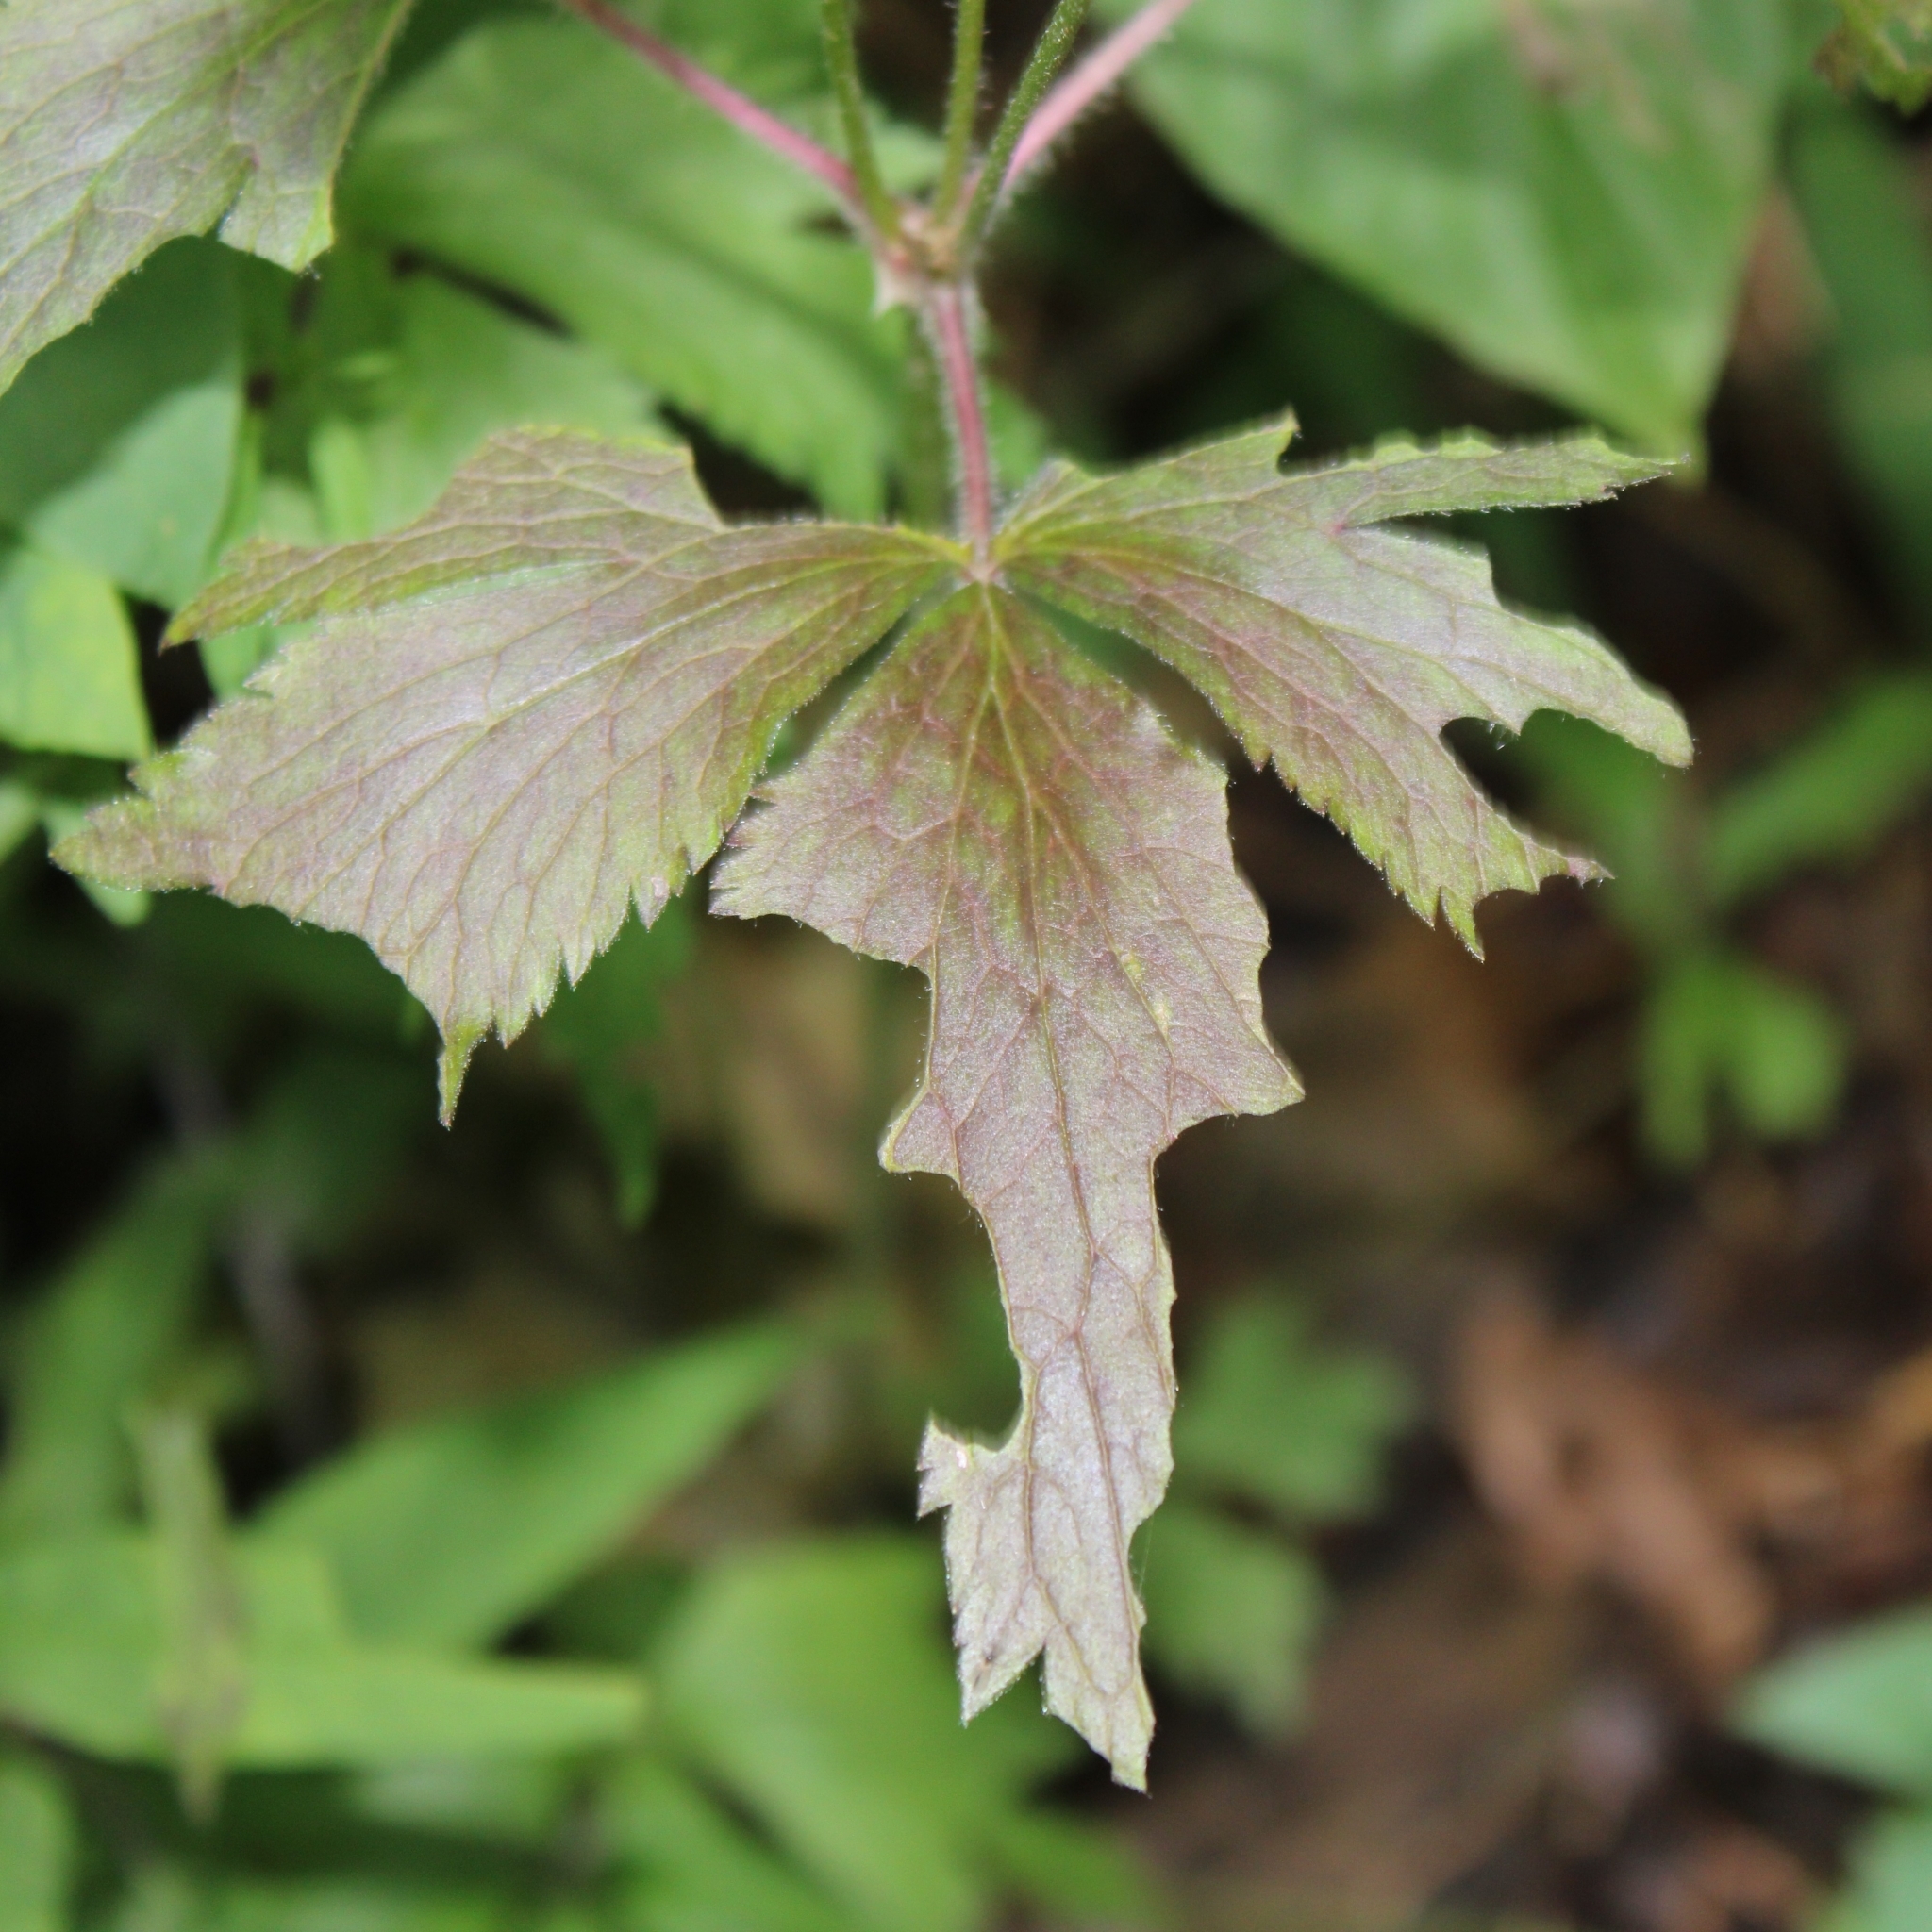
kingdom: Plantae
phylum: Tracheophyta
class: Magnoliopsida
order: Ranunculales
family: Ranunculaceae
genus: Anemone
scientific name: Anemone virginiana
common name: Tall anemone
